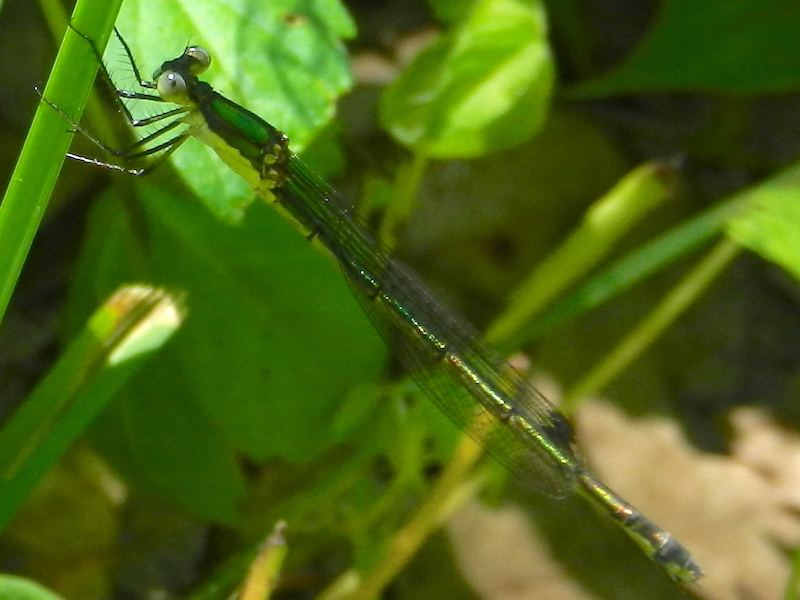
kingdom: Animalia
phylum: Arthropoda
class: Insecta
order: Odonata
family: Lestidae
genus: Lestes
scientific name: Lestes inaequalis
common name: Elegant spreadwing
